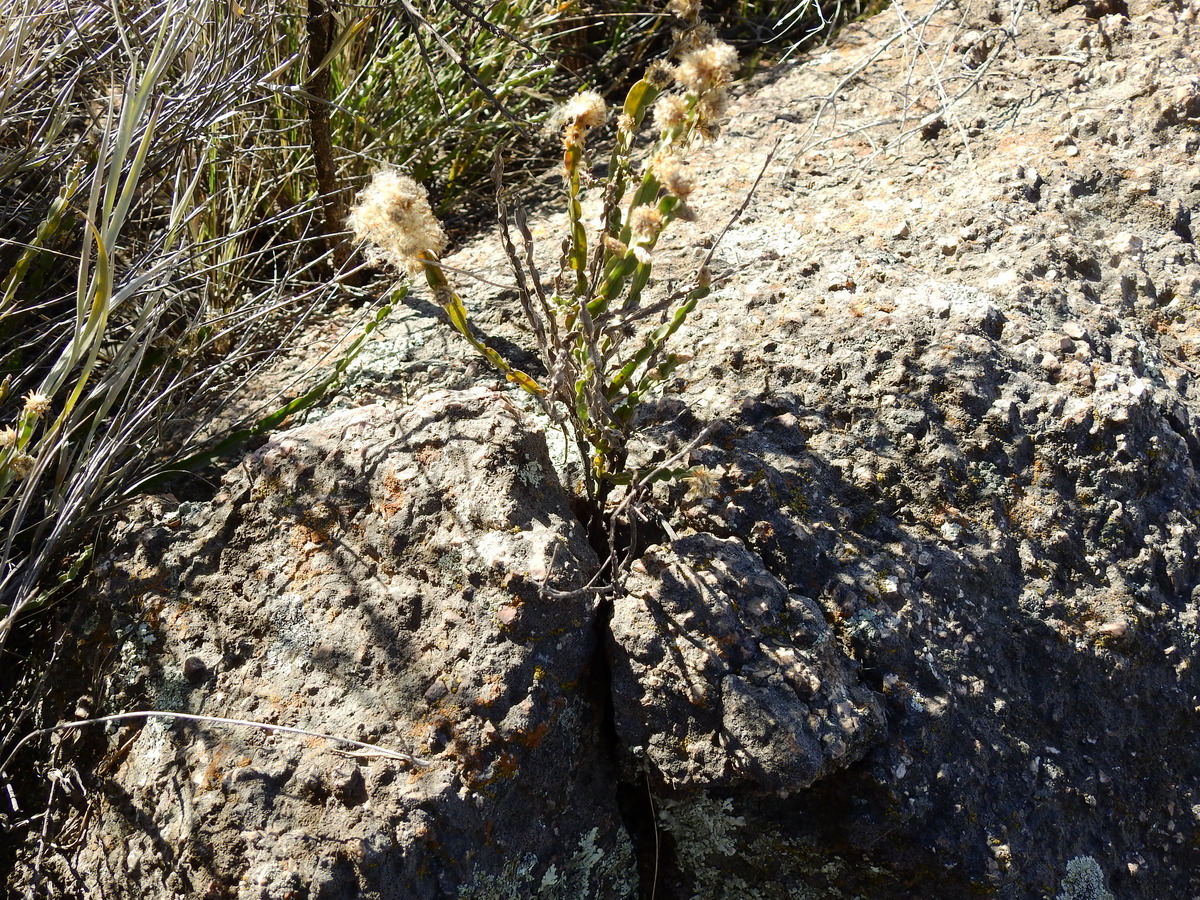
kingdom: Plantae
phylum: Tracheophyta
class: Magnoliopsida
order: Asterales
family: Asteraceae
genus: Baccharis
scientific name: Baccharis trimera
